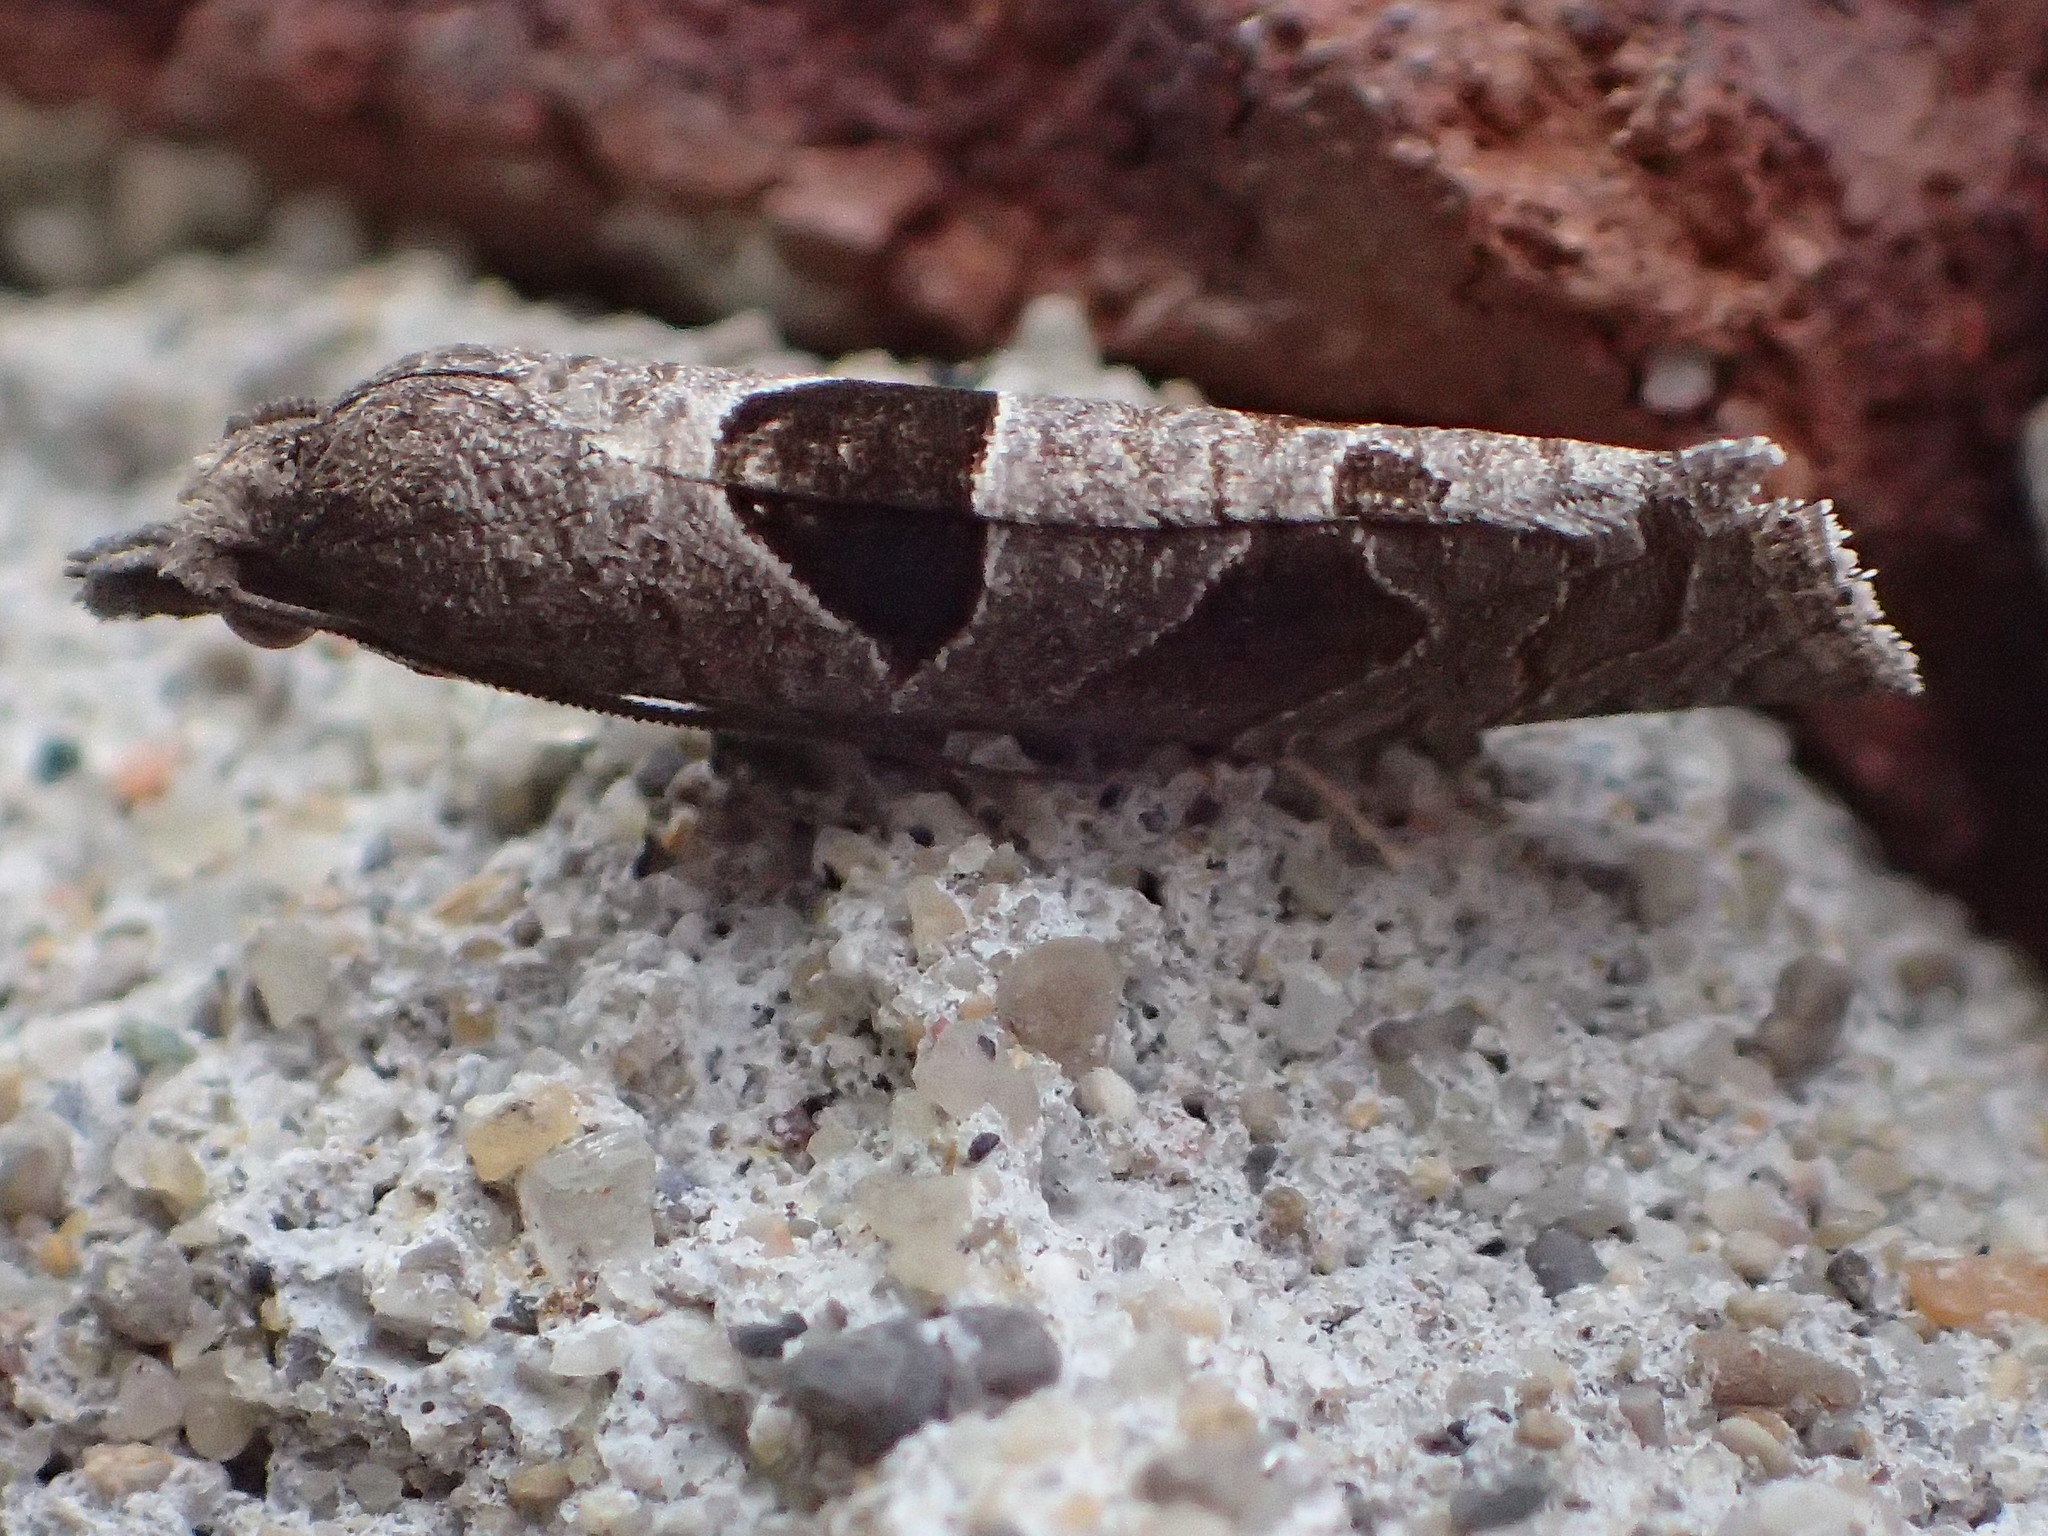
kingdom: Animalia
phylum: Arthropoda
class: Insecta
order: Lepidoptera
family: Tortricidae
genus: Pelochrista
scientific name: Pelochrista dorsisignatana
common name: Triangle-backed pelochrista moth
